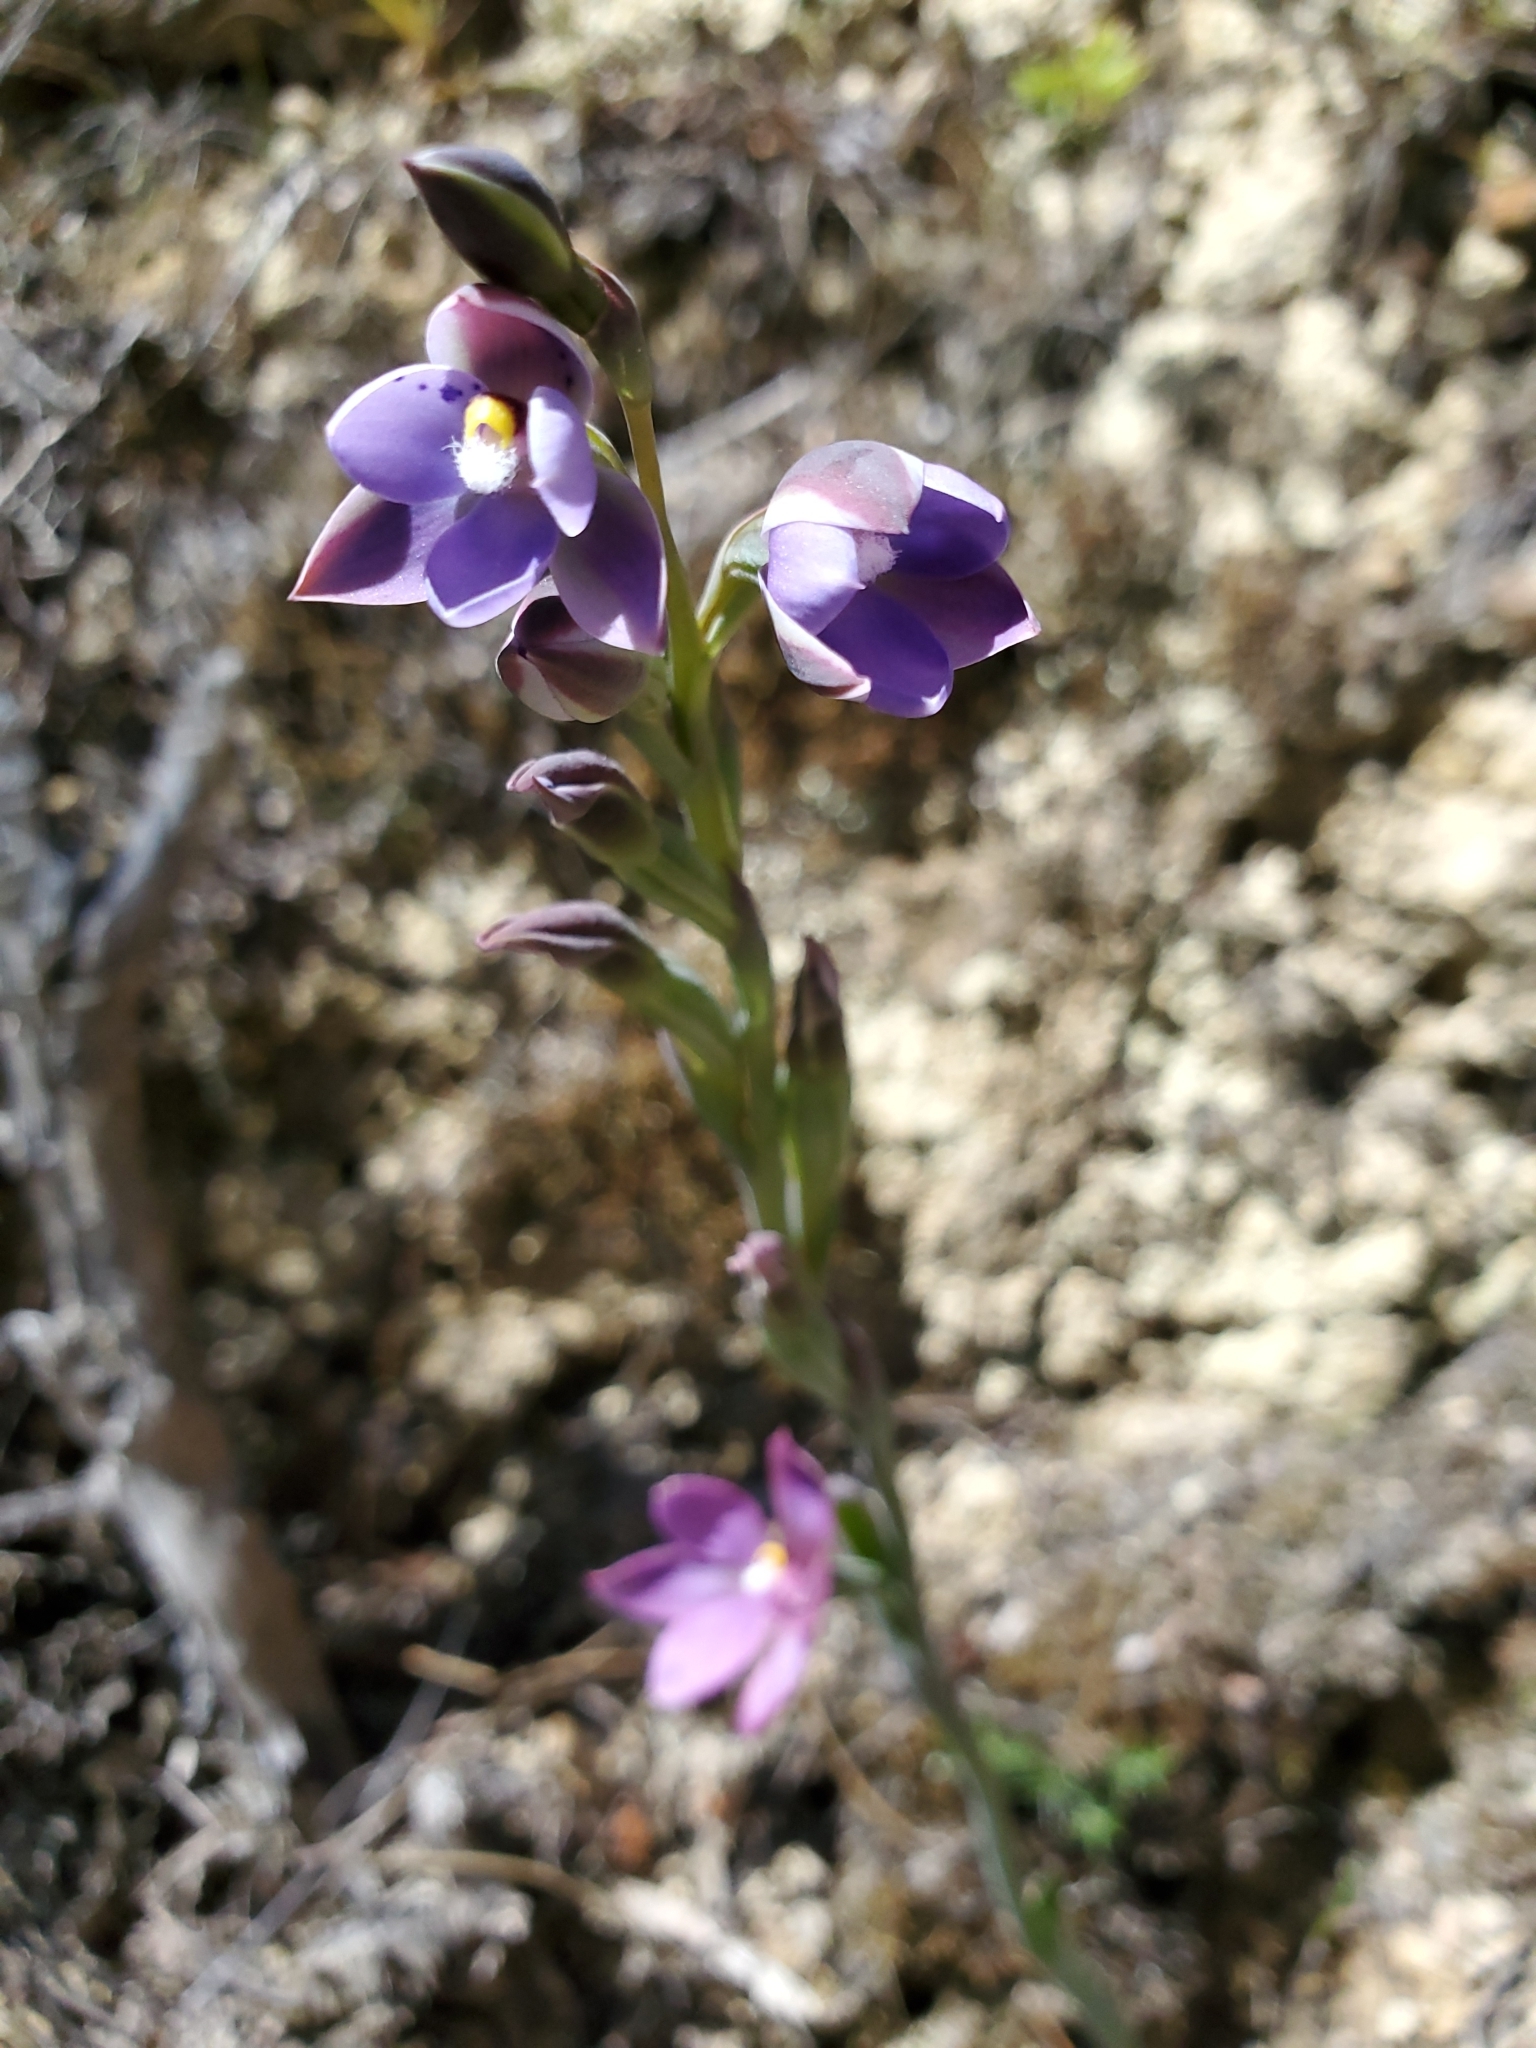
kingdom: Plantae
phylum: Tracheophyta
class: Liliopsida
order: Asparagales
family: Orchidaceae
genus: Thelymitra
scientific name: Thelymitra nervosa
